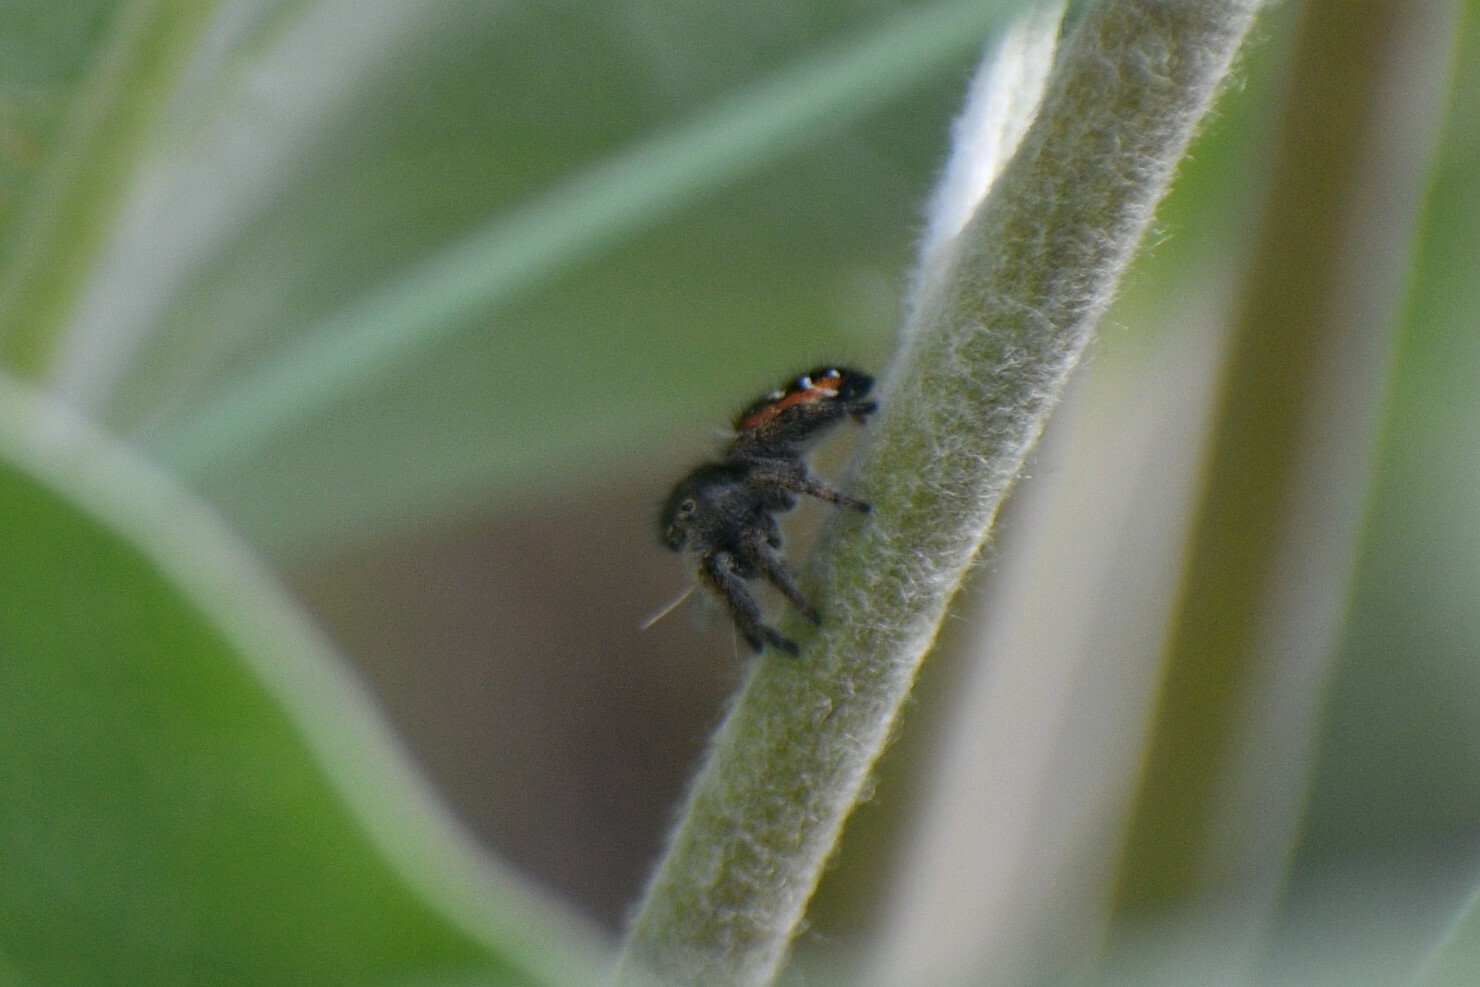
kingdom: Animalia
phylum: Arthropoda
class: Arachnida
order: Araneae
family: Salticidae
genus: Phidippus
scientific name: Phidippus johnsoni
